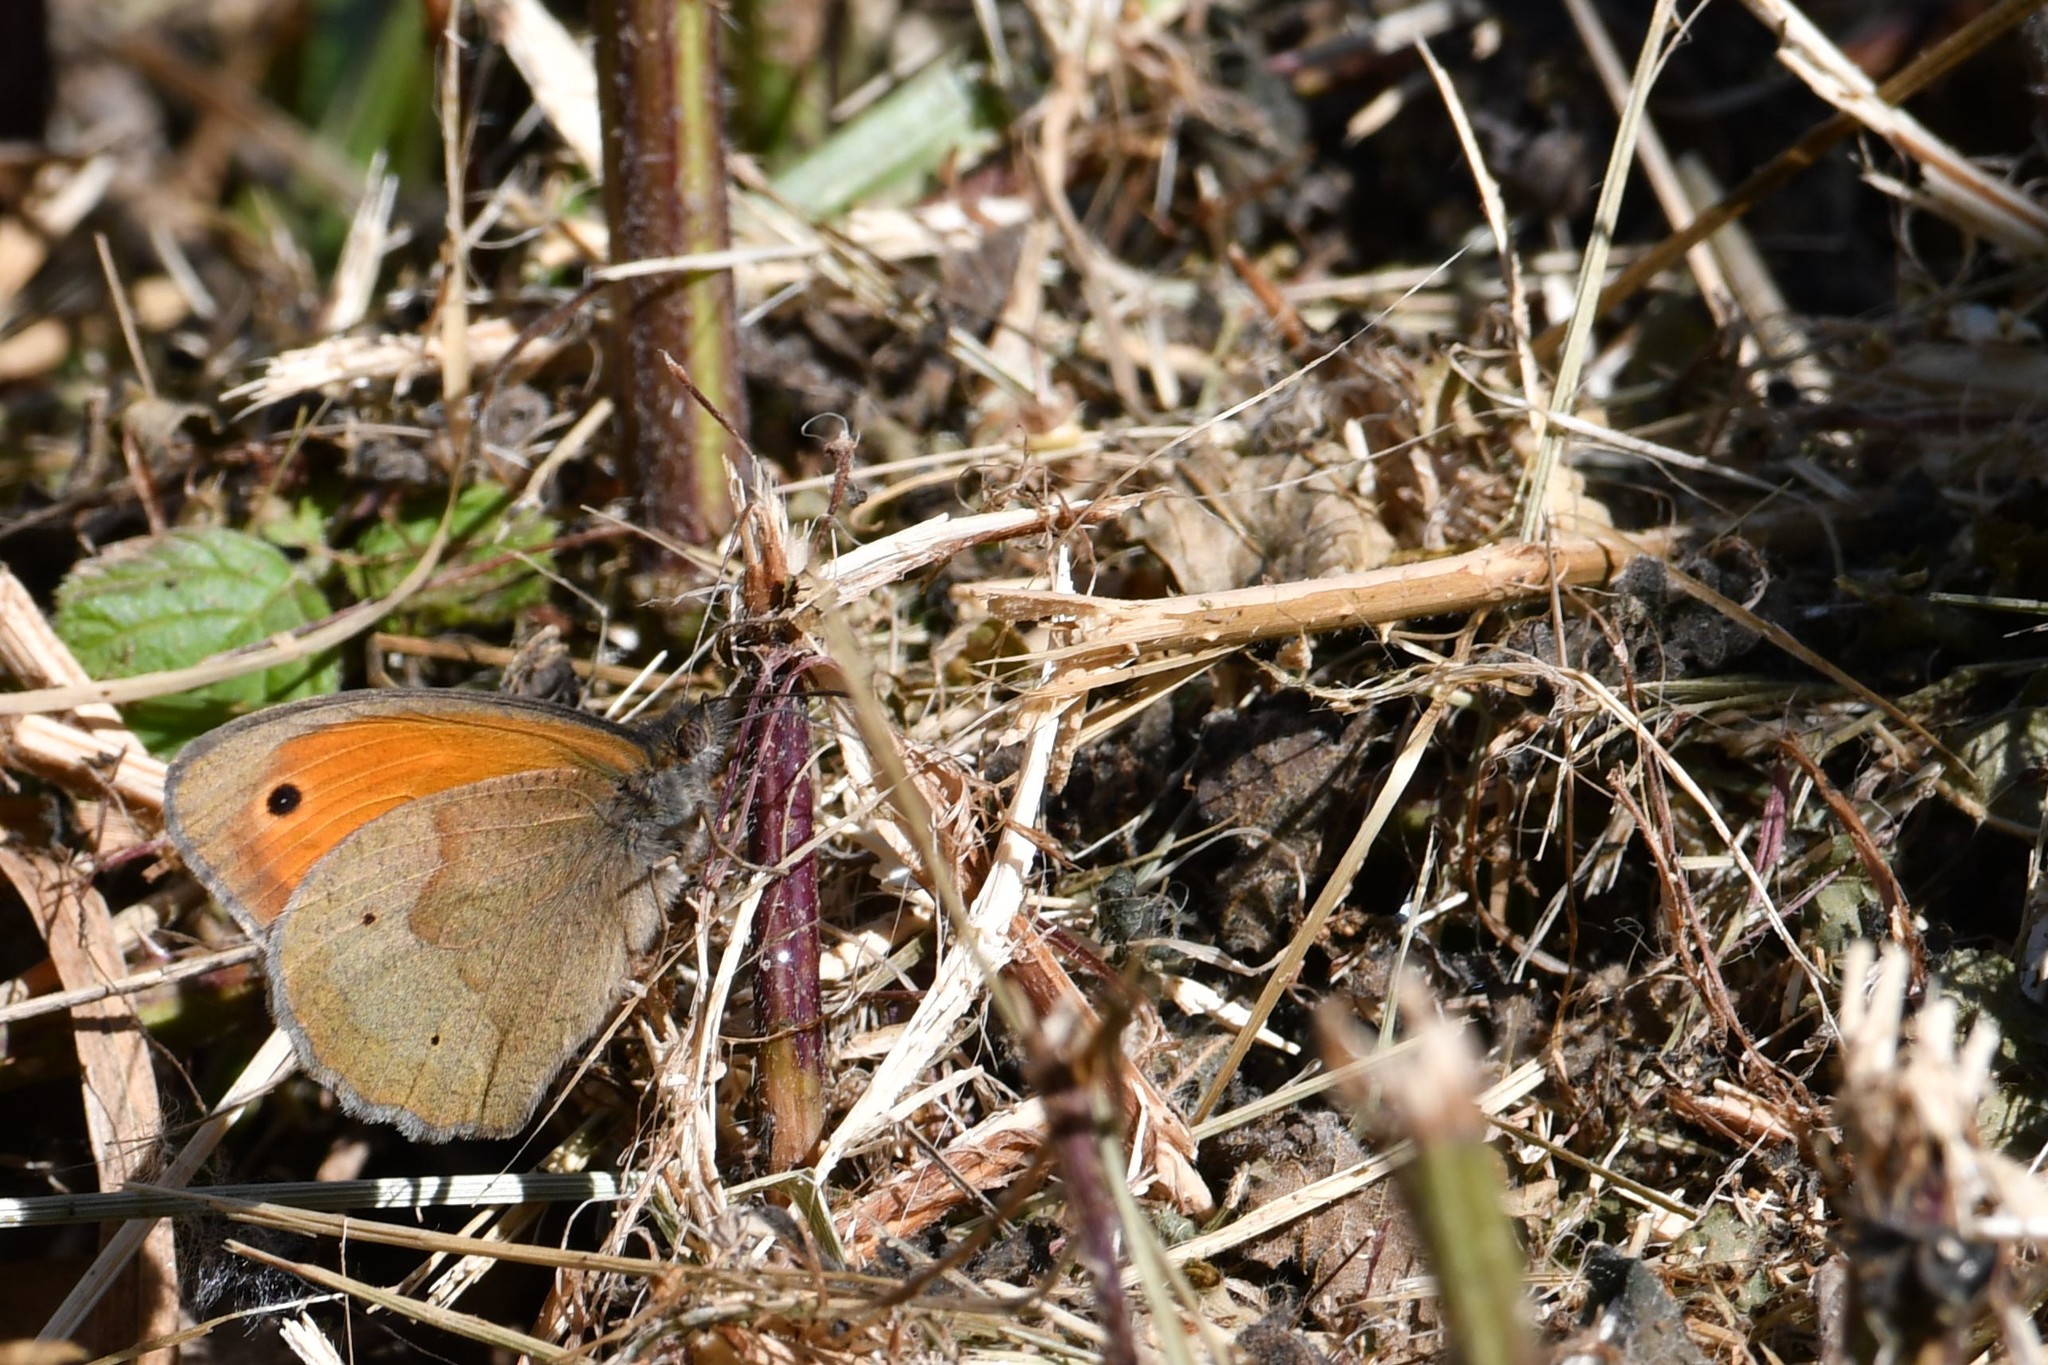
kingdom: Animalia
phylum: Arthropoda
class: Insecta
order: Lepidoptera
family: Nymphalidae
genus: Maniola
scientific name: Maniola jurtina
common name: Meadow brown
